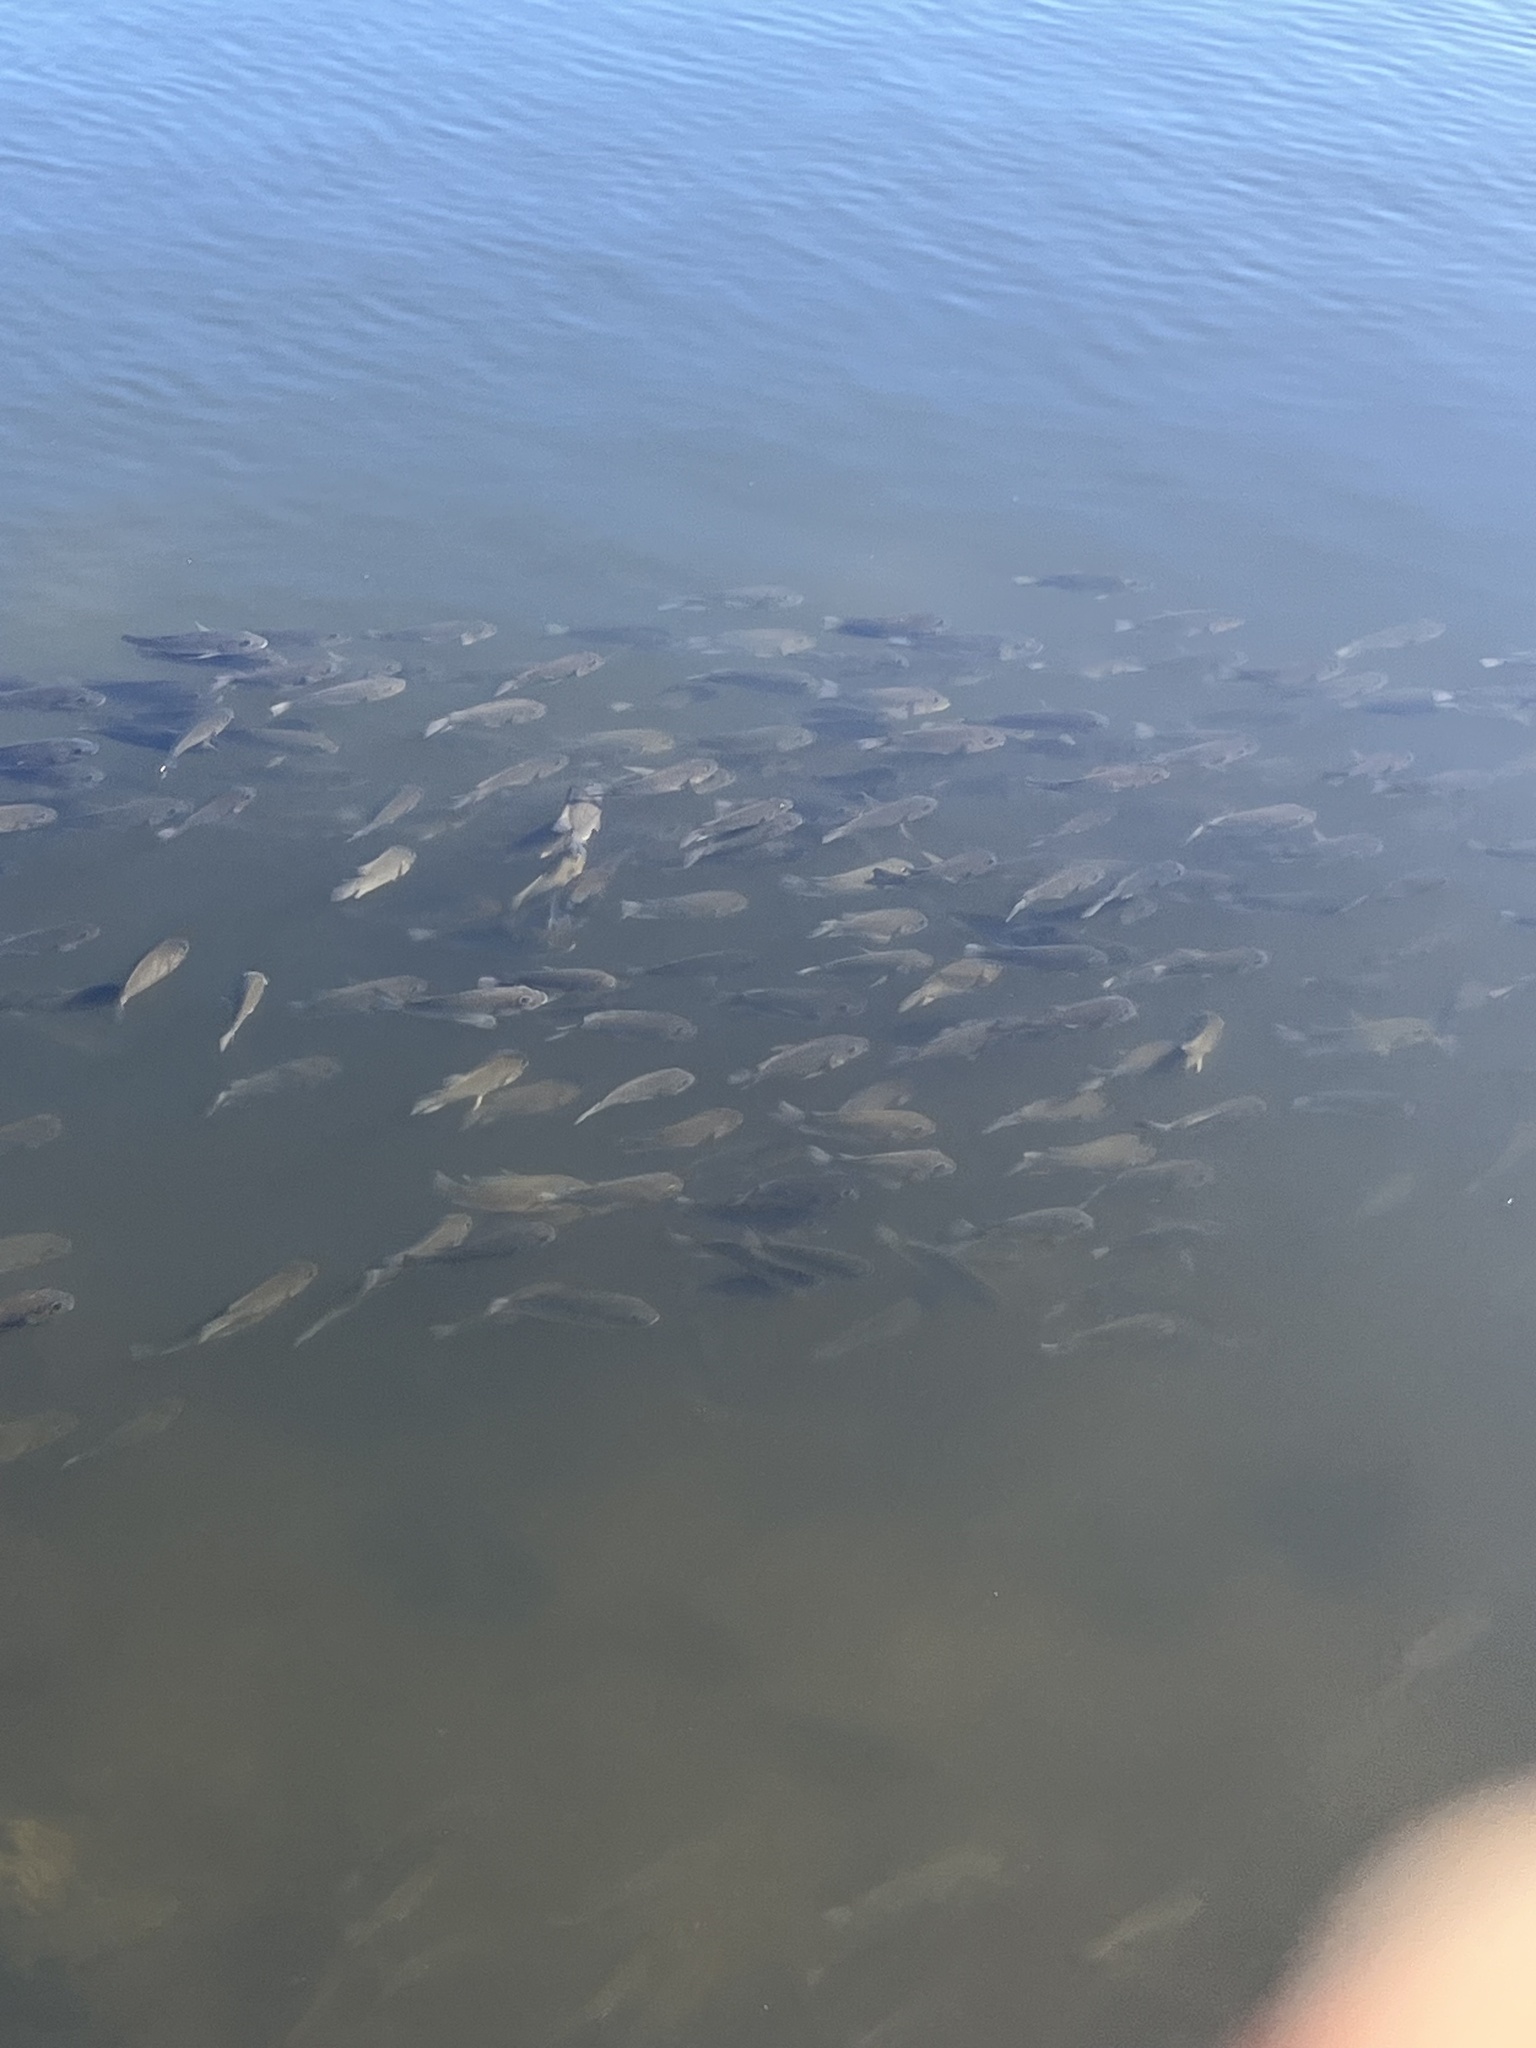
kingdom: Animalia
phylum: Chordata
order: Perciformes
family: Cichlidae
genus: Sarotherodon
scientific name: Sarotherodon melanotheron
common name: Blackchin tilapia
